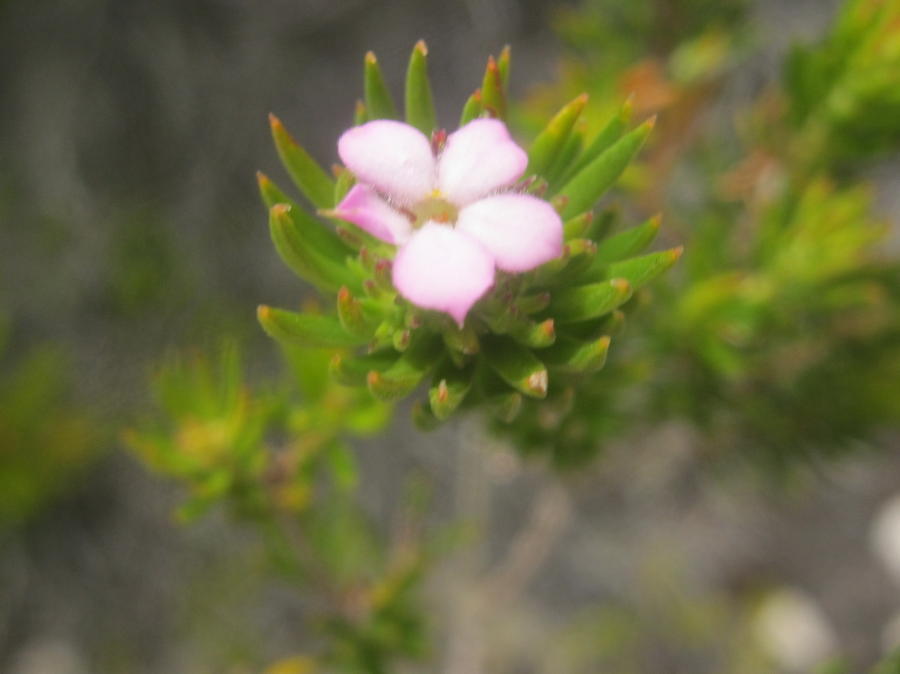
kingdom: Plantae
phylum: Tracheophyta
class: Magnoliopsida
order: Sapindales
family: Rutaceae
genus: Acmadenia
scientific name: Acmadenia alternifolia
